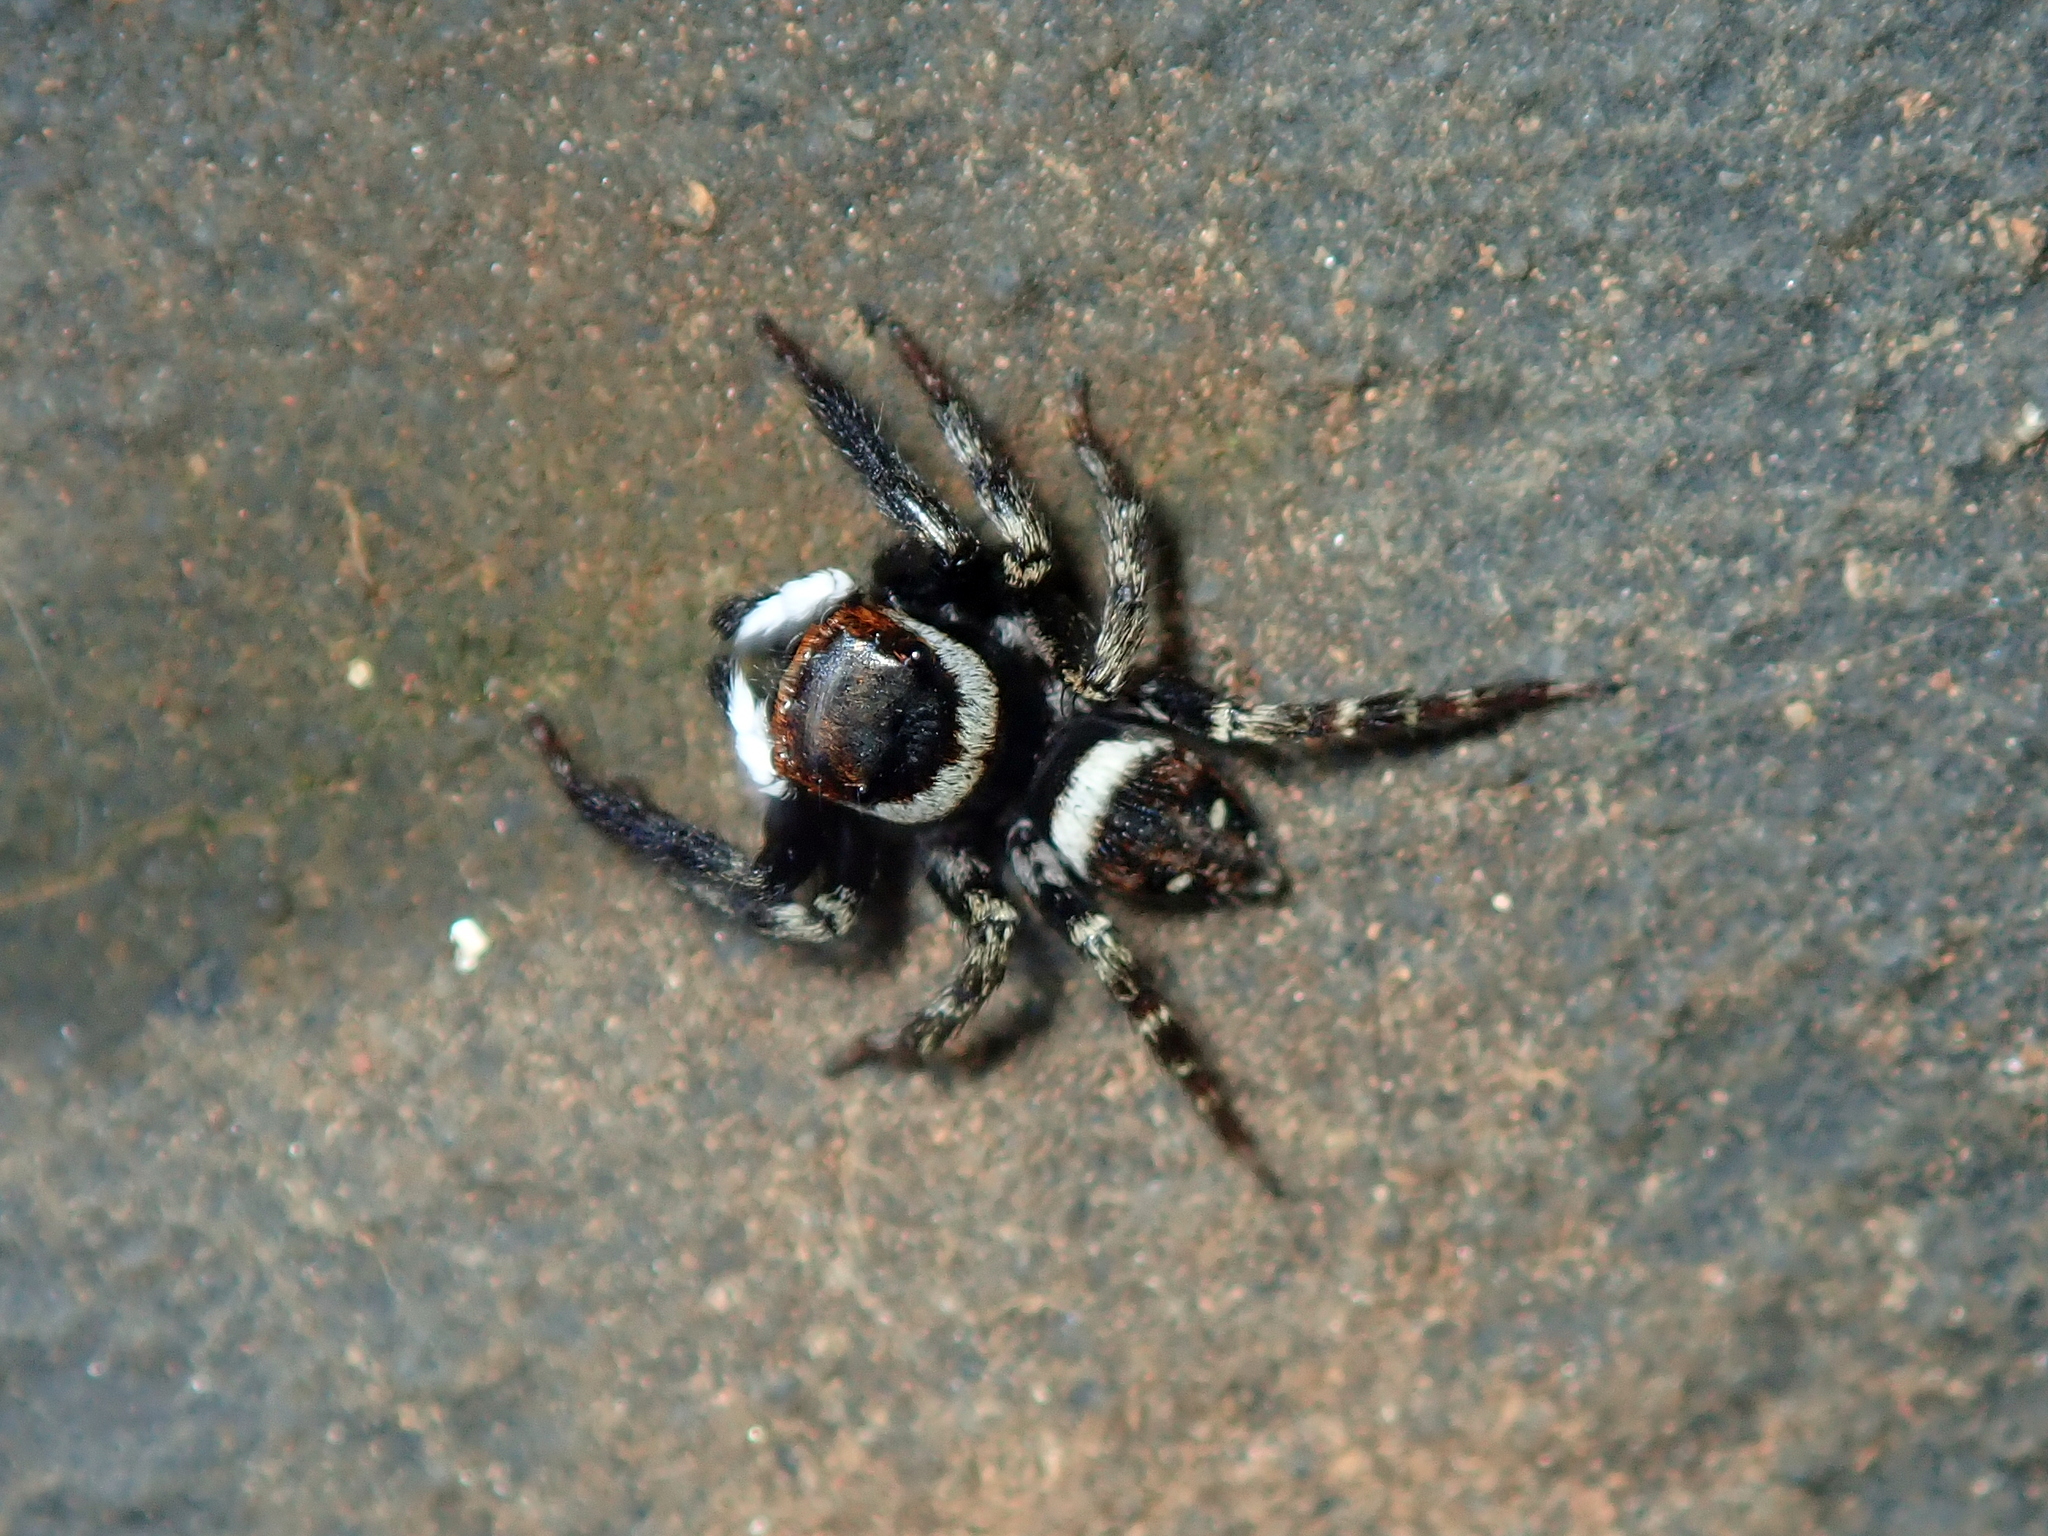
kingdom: Animalia
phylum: Arthropoda
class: Arachnida
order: Araneae
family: Salticidae
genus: Hasarius
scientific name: Hasarius adansoni
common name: Jumping spider
